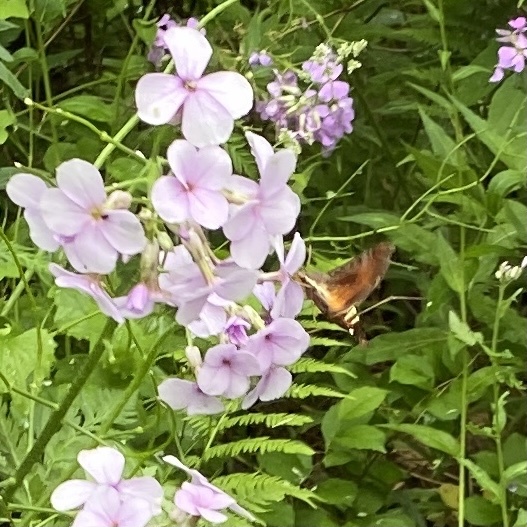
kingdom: Animalia
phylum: Arthropoda
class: Insecta
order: Lepidoptera
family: Sphingidae
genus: Amphion
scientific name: Amphion floridensis
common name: Nessus sphinx
